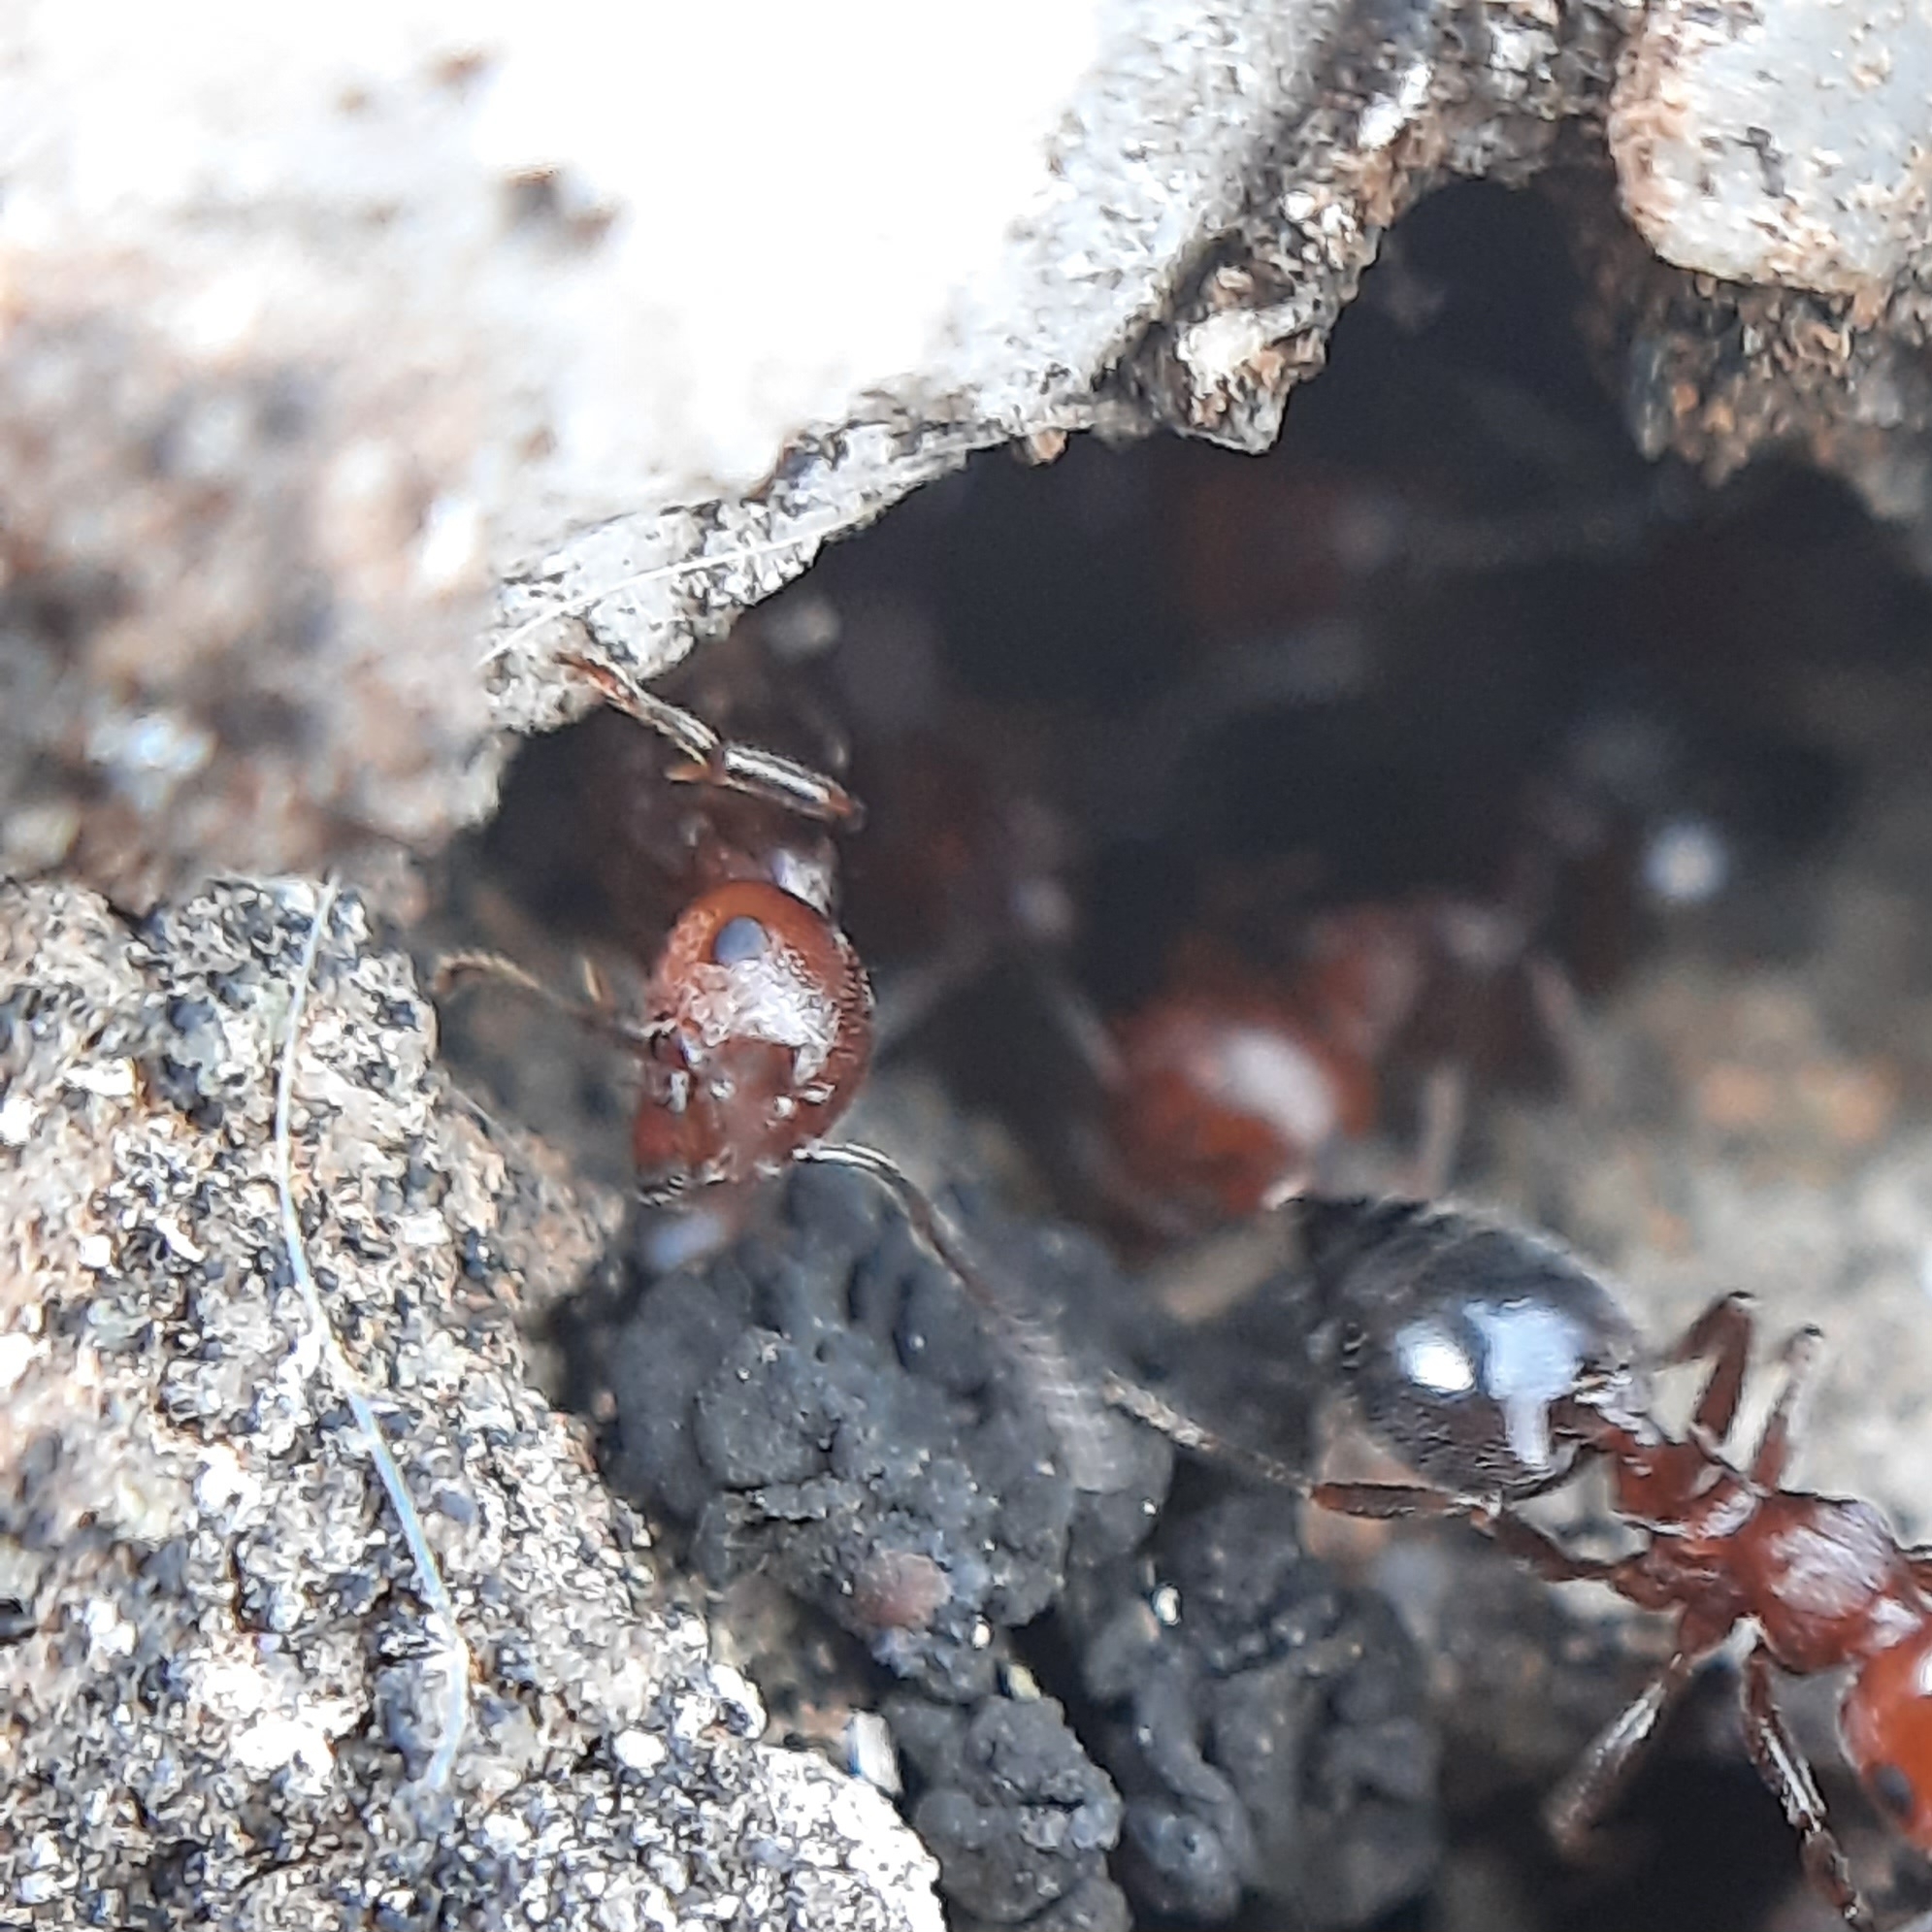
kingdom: Animalia
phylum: Arthropoda
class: Insecta
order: Hymenoptera
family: Formicidae
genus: Crematogaster
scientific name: Crematogaster schmidti
